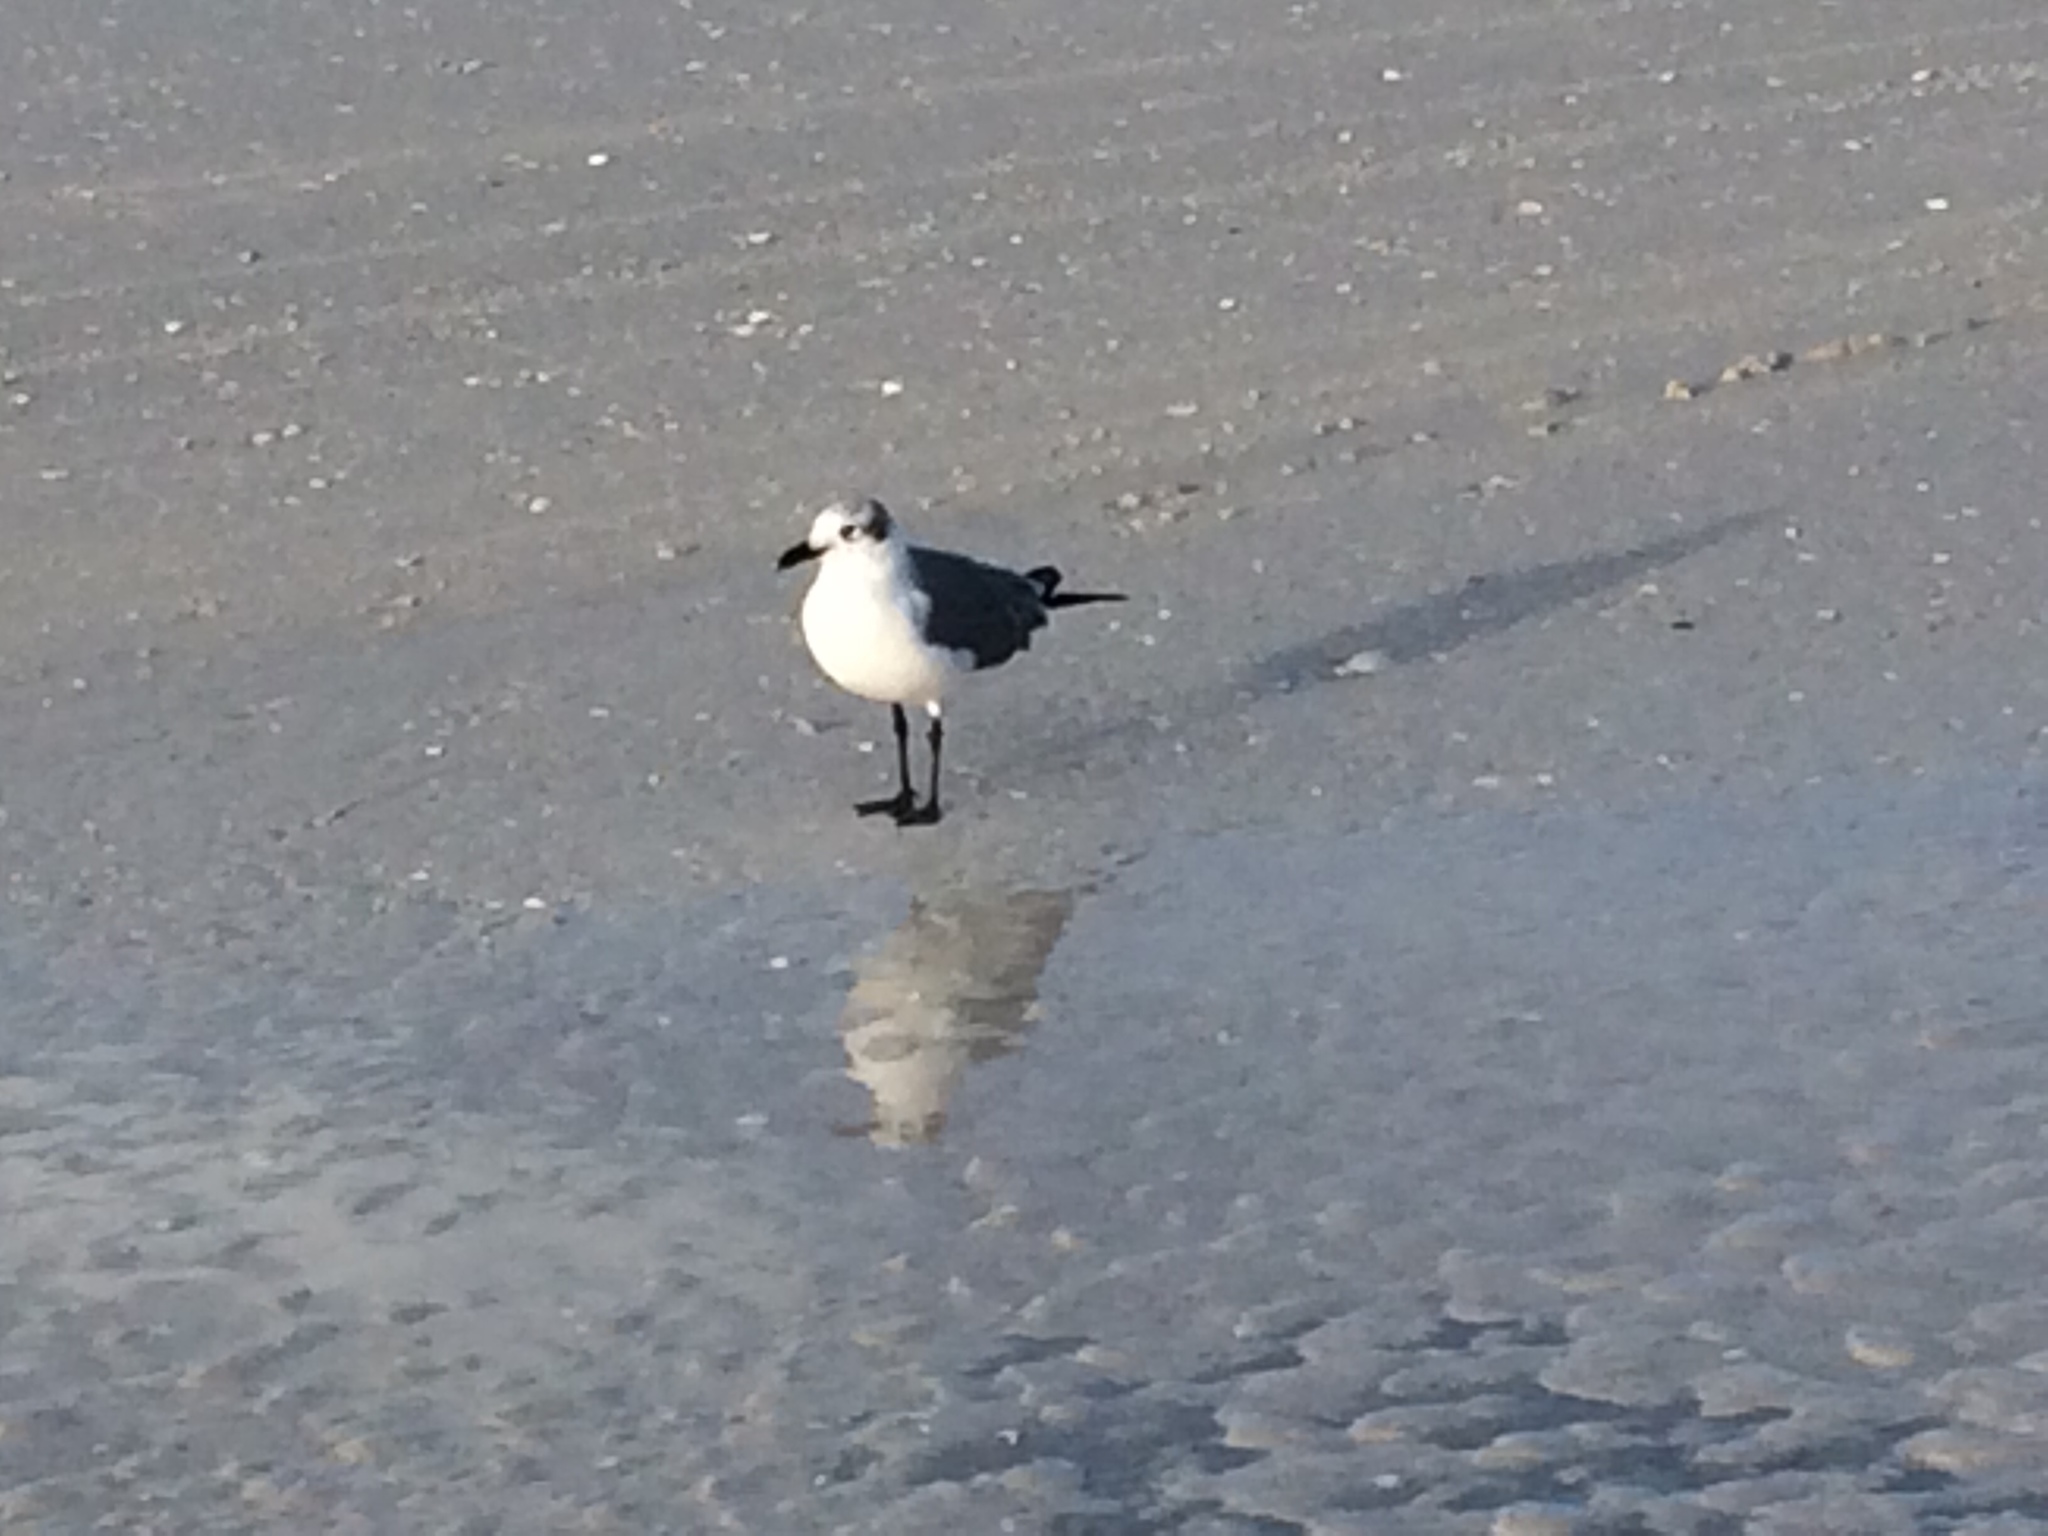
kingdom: Animalia
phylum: Chordata
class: Aves
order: Charadriiformes
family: Laridae
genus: Leucophaeus
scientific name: Leucophaeus atricilla
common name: Laughing gull
